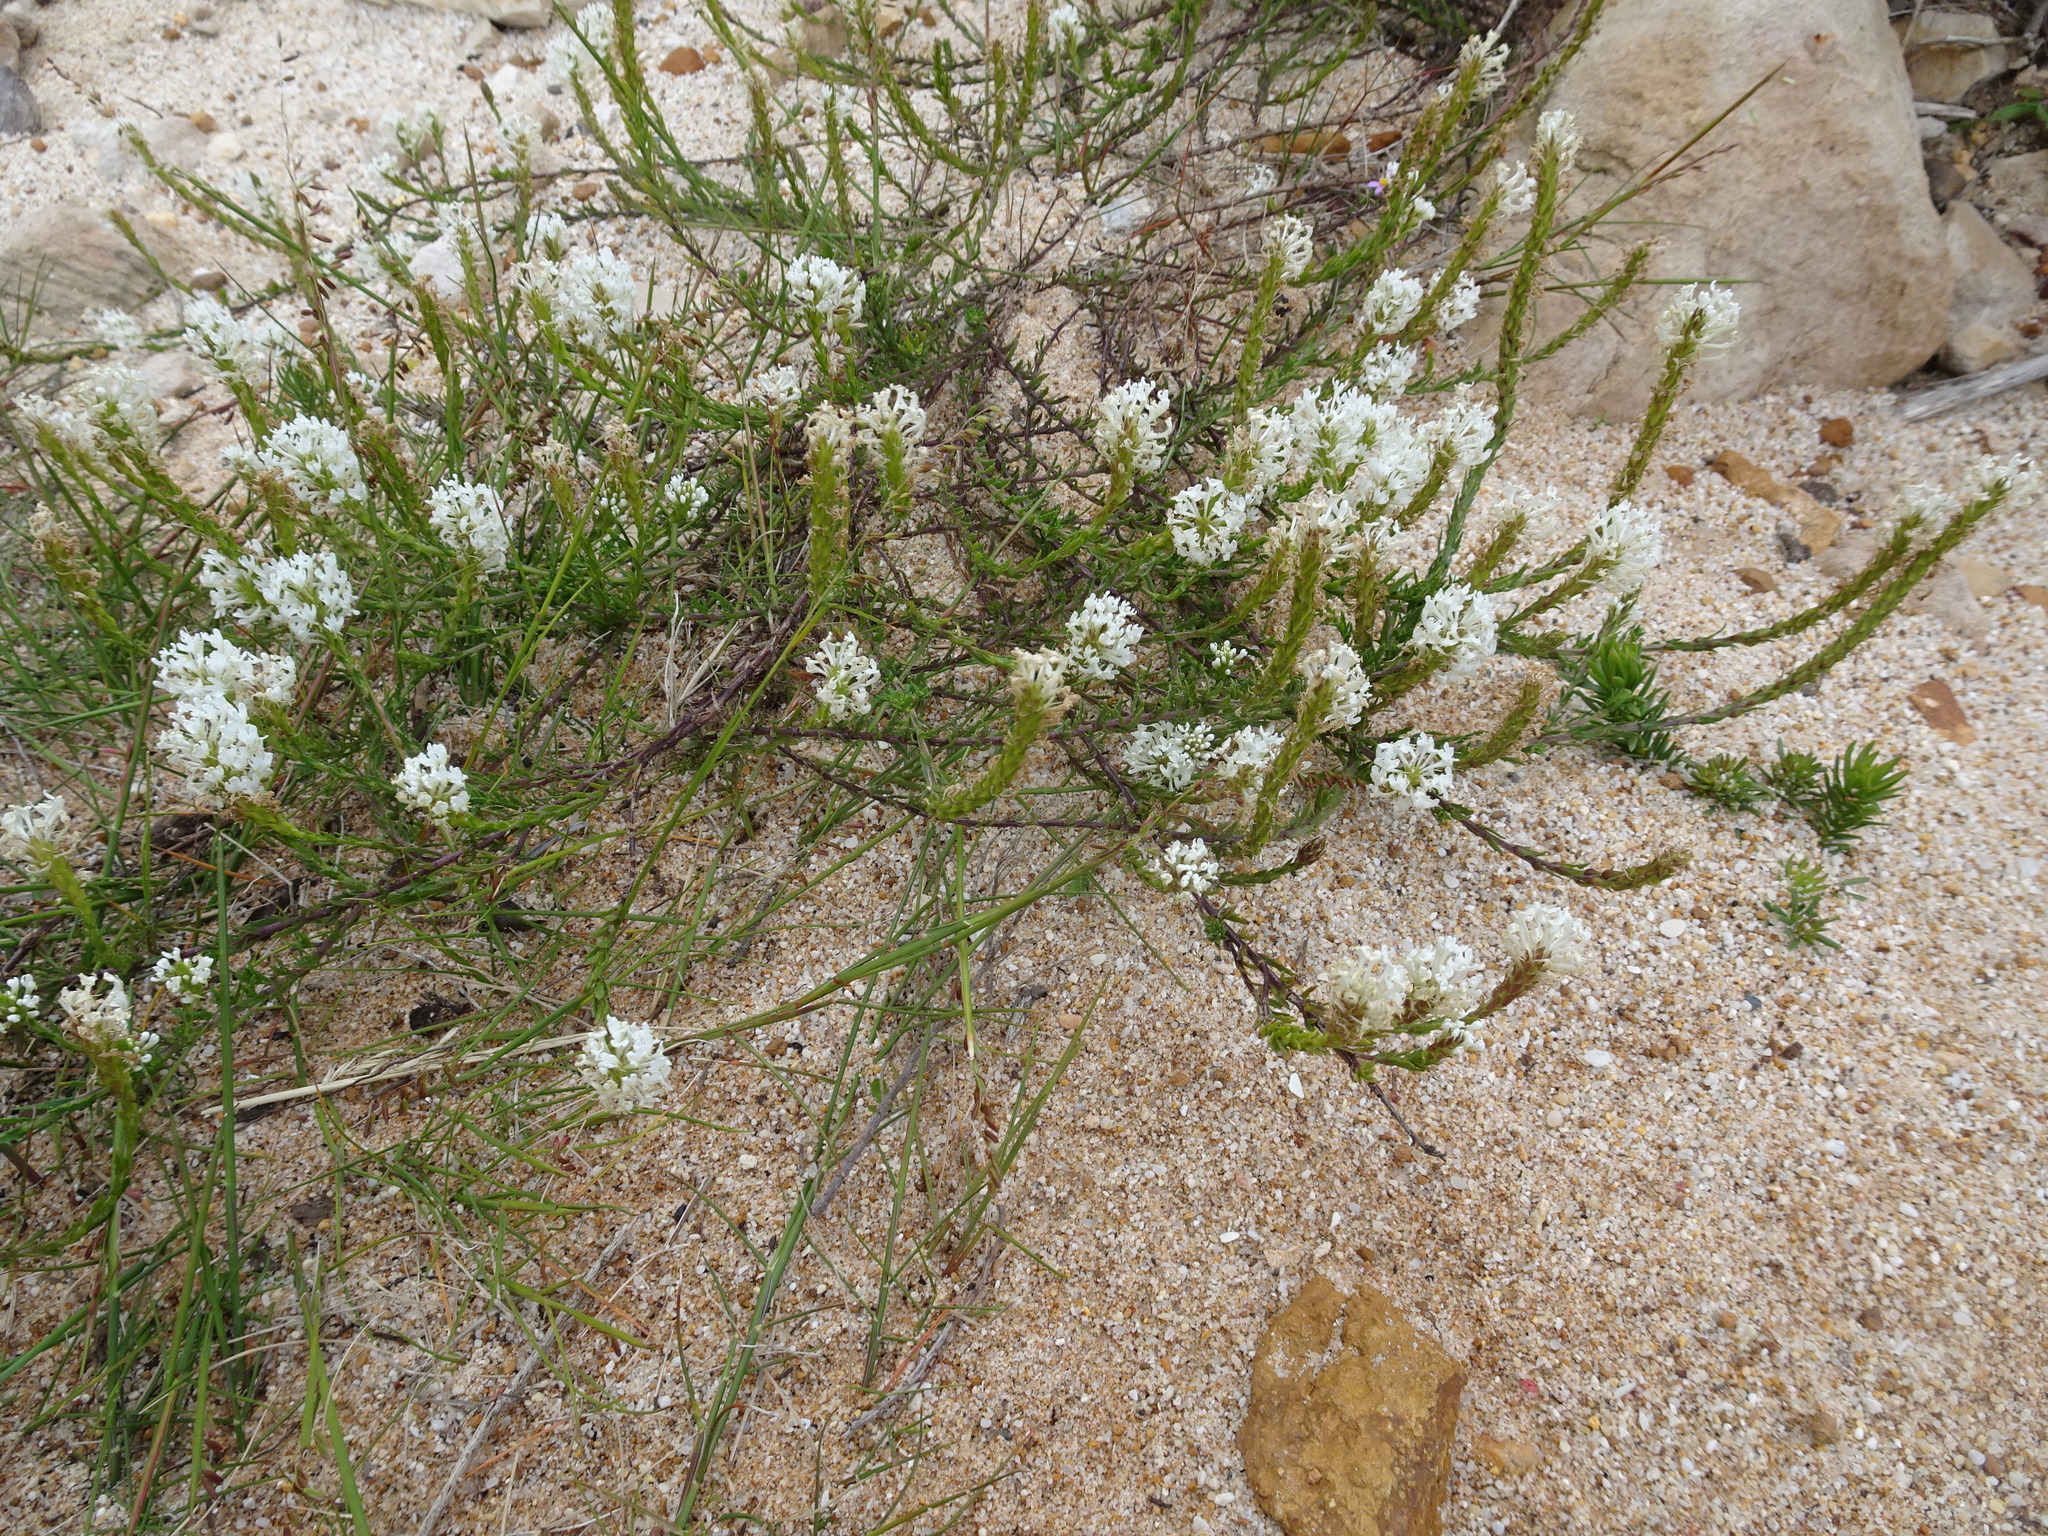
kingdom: Plantae
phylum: Tracheophyta
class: Magnoliopsida
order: Lamiales
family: Scrophulariaceae
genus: Dischisma
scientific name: Dischisma ciliatum
